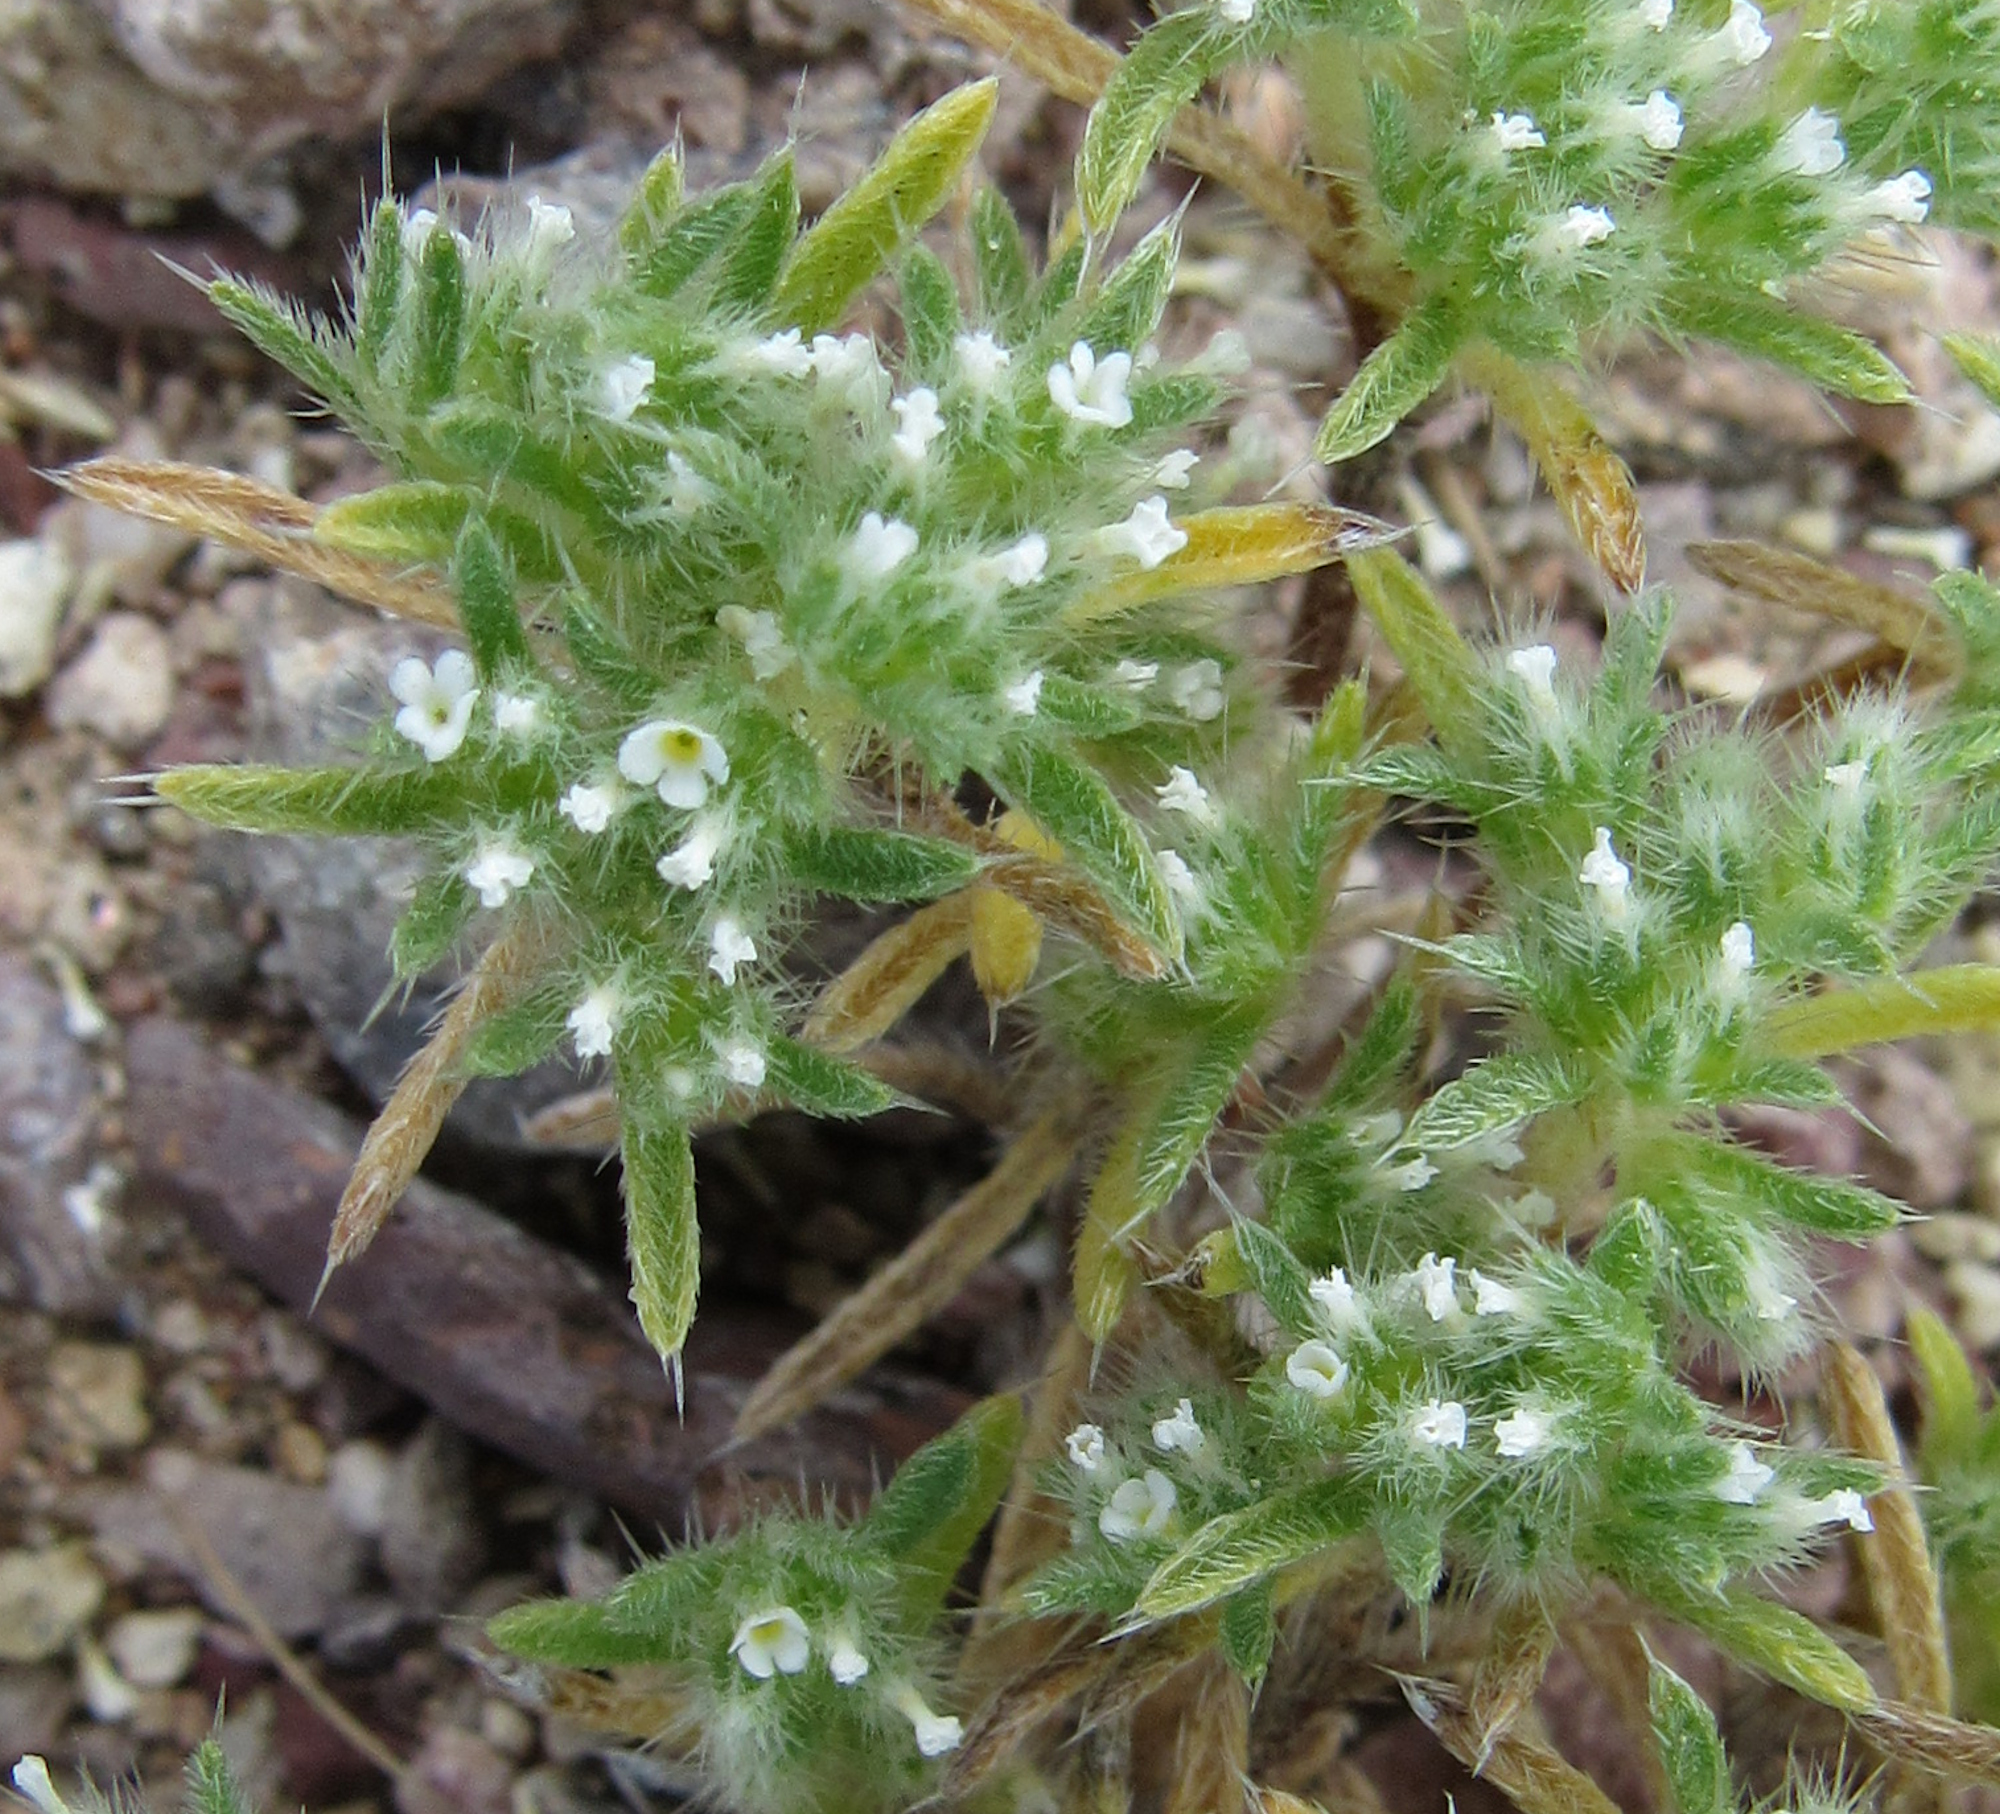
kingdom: Plantae
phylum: Tracheophyta
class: Magnoliopsida
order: Boraginales
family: Boraginaceae
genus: Greeneocharis
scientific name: Greeneocharis circumscissa
